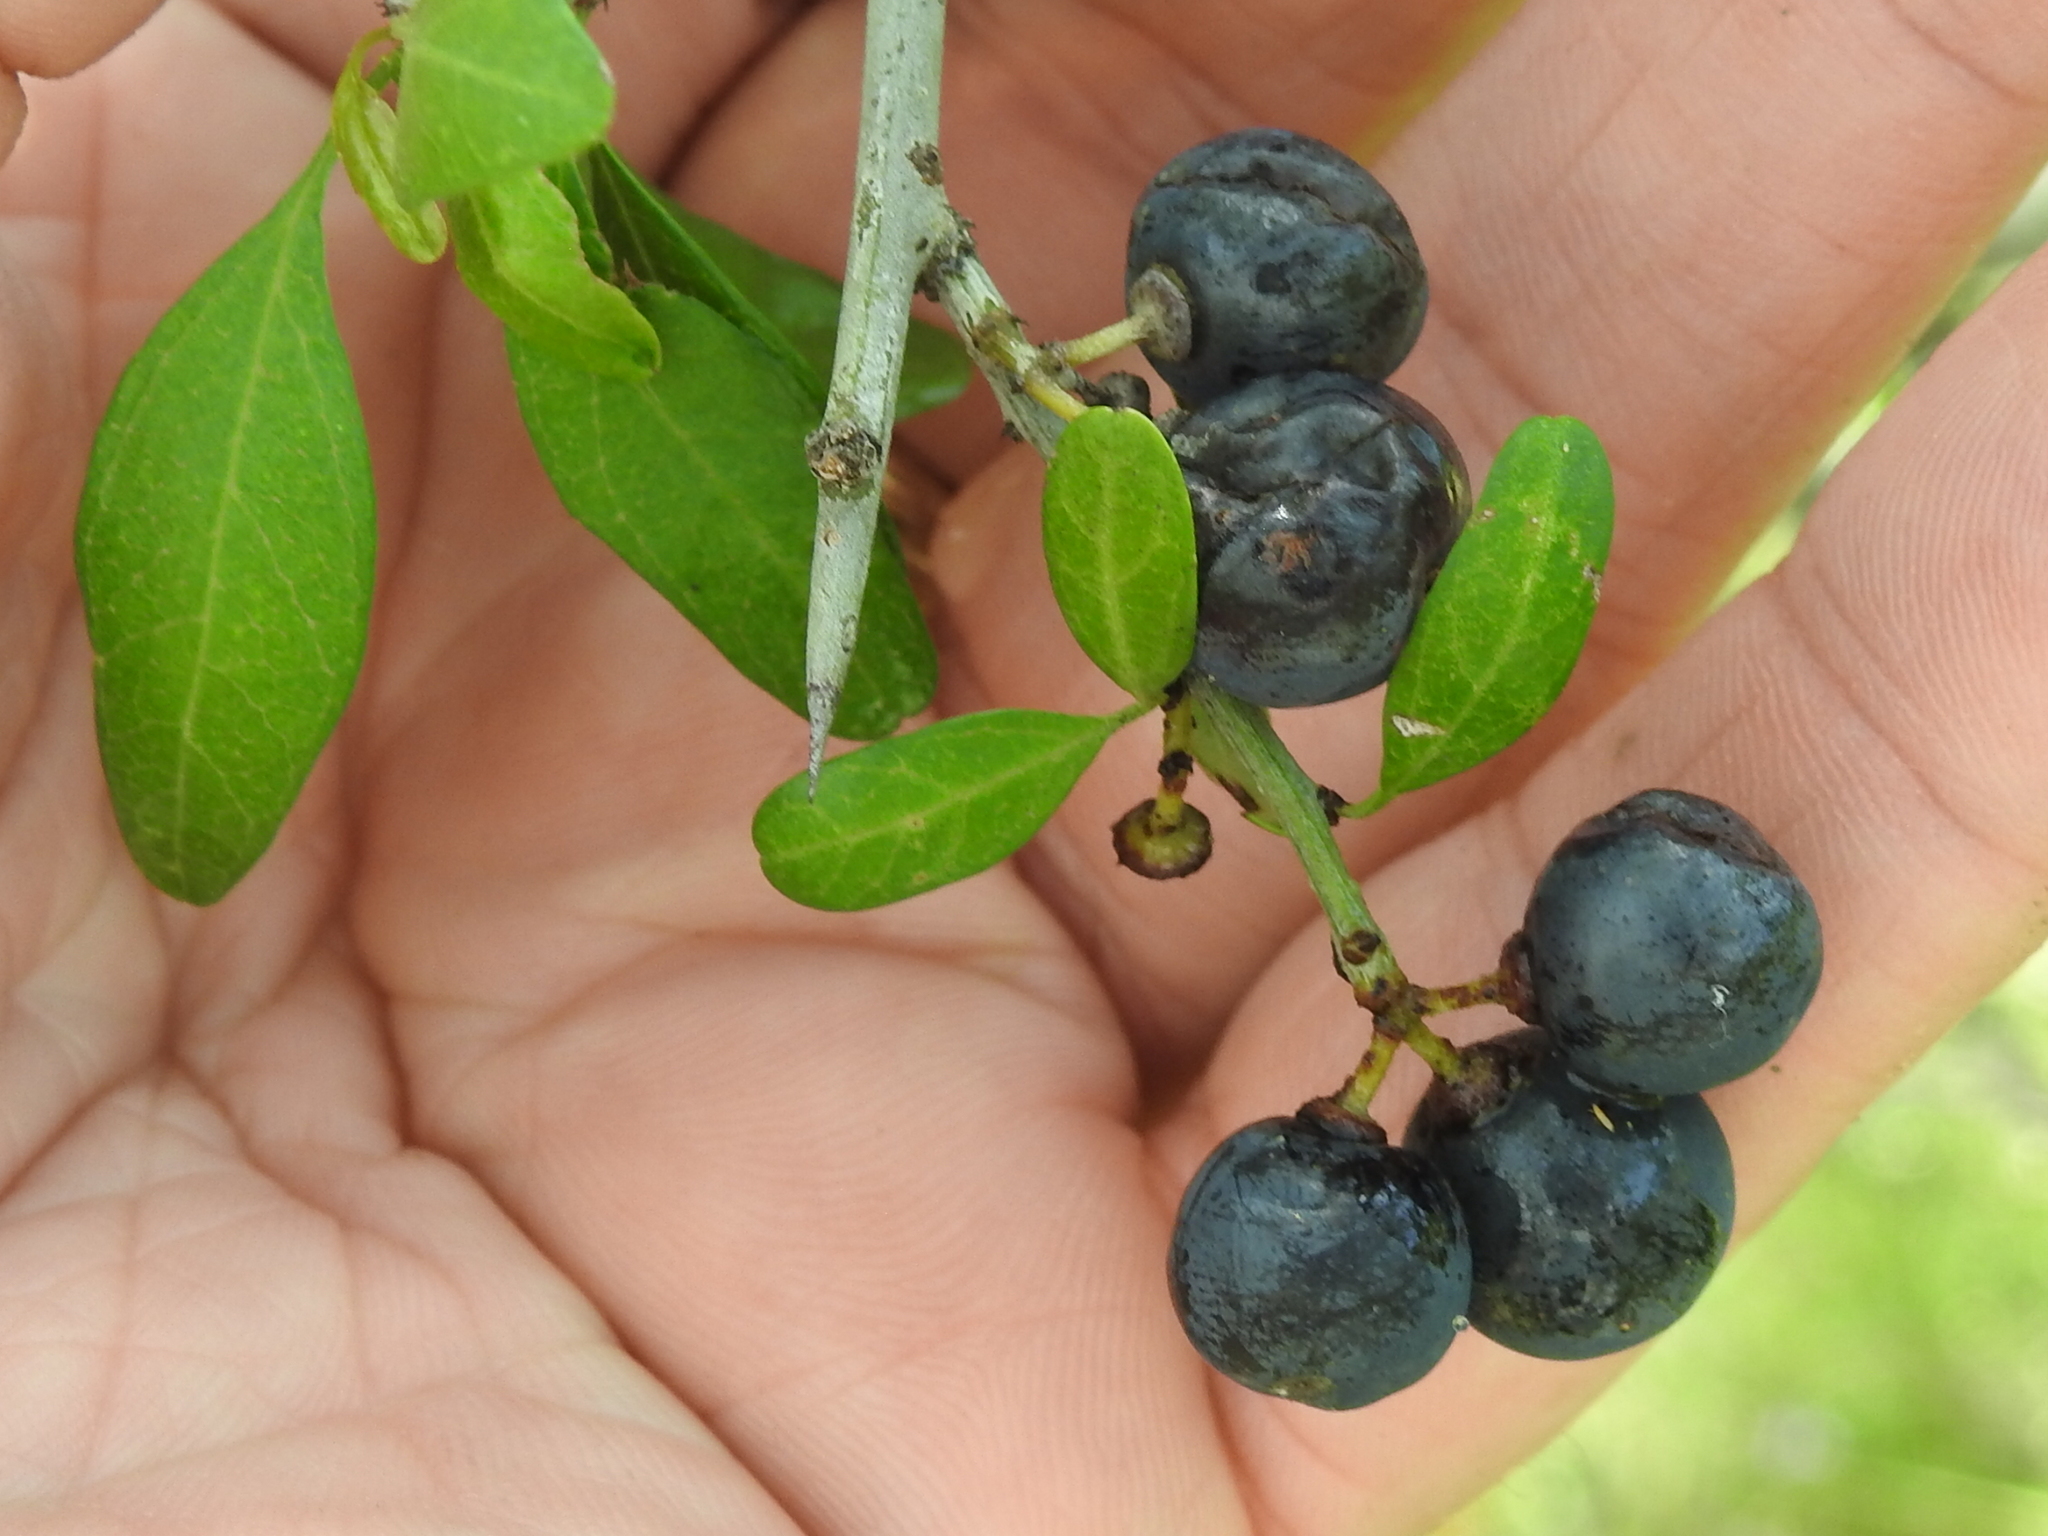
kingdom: Plantae
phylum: Tracheophyta
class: Magnoliopsida
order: Rosales
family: Rhamnaceae
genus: Sarcomphalus
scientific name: Sarcomphalus obtusifolius
